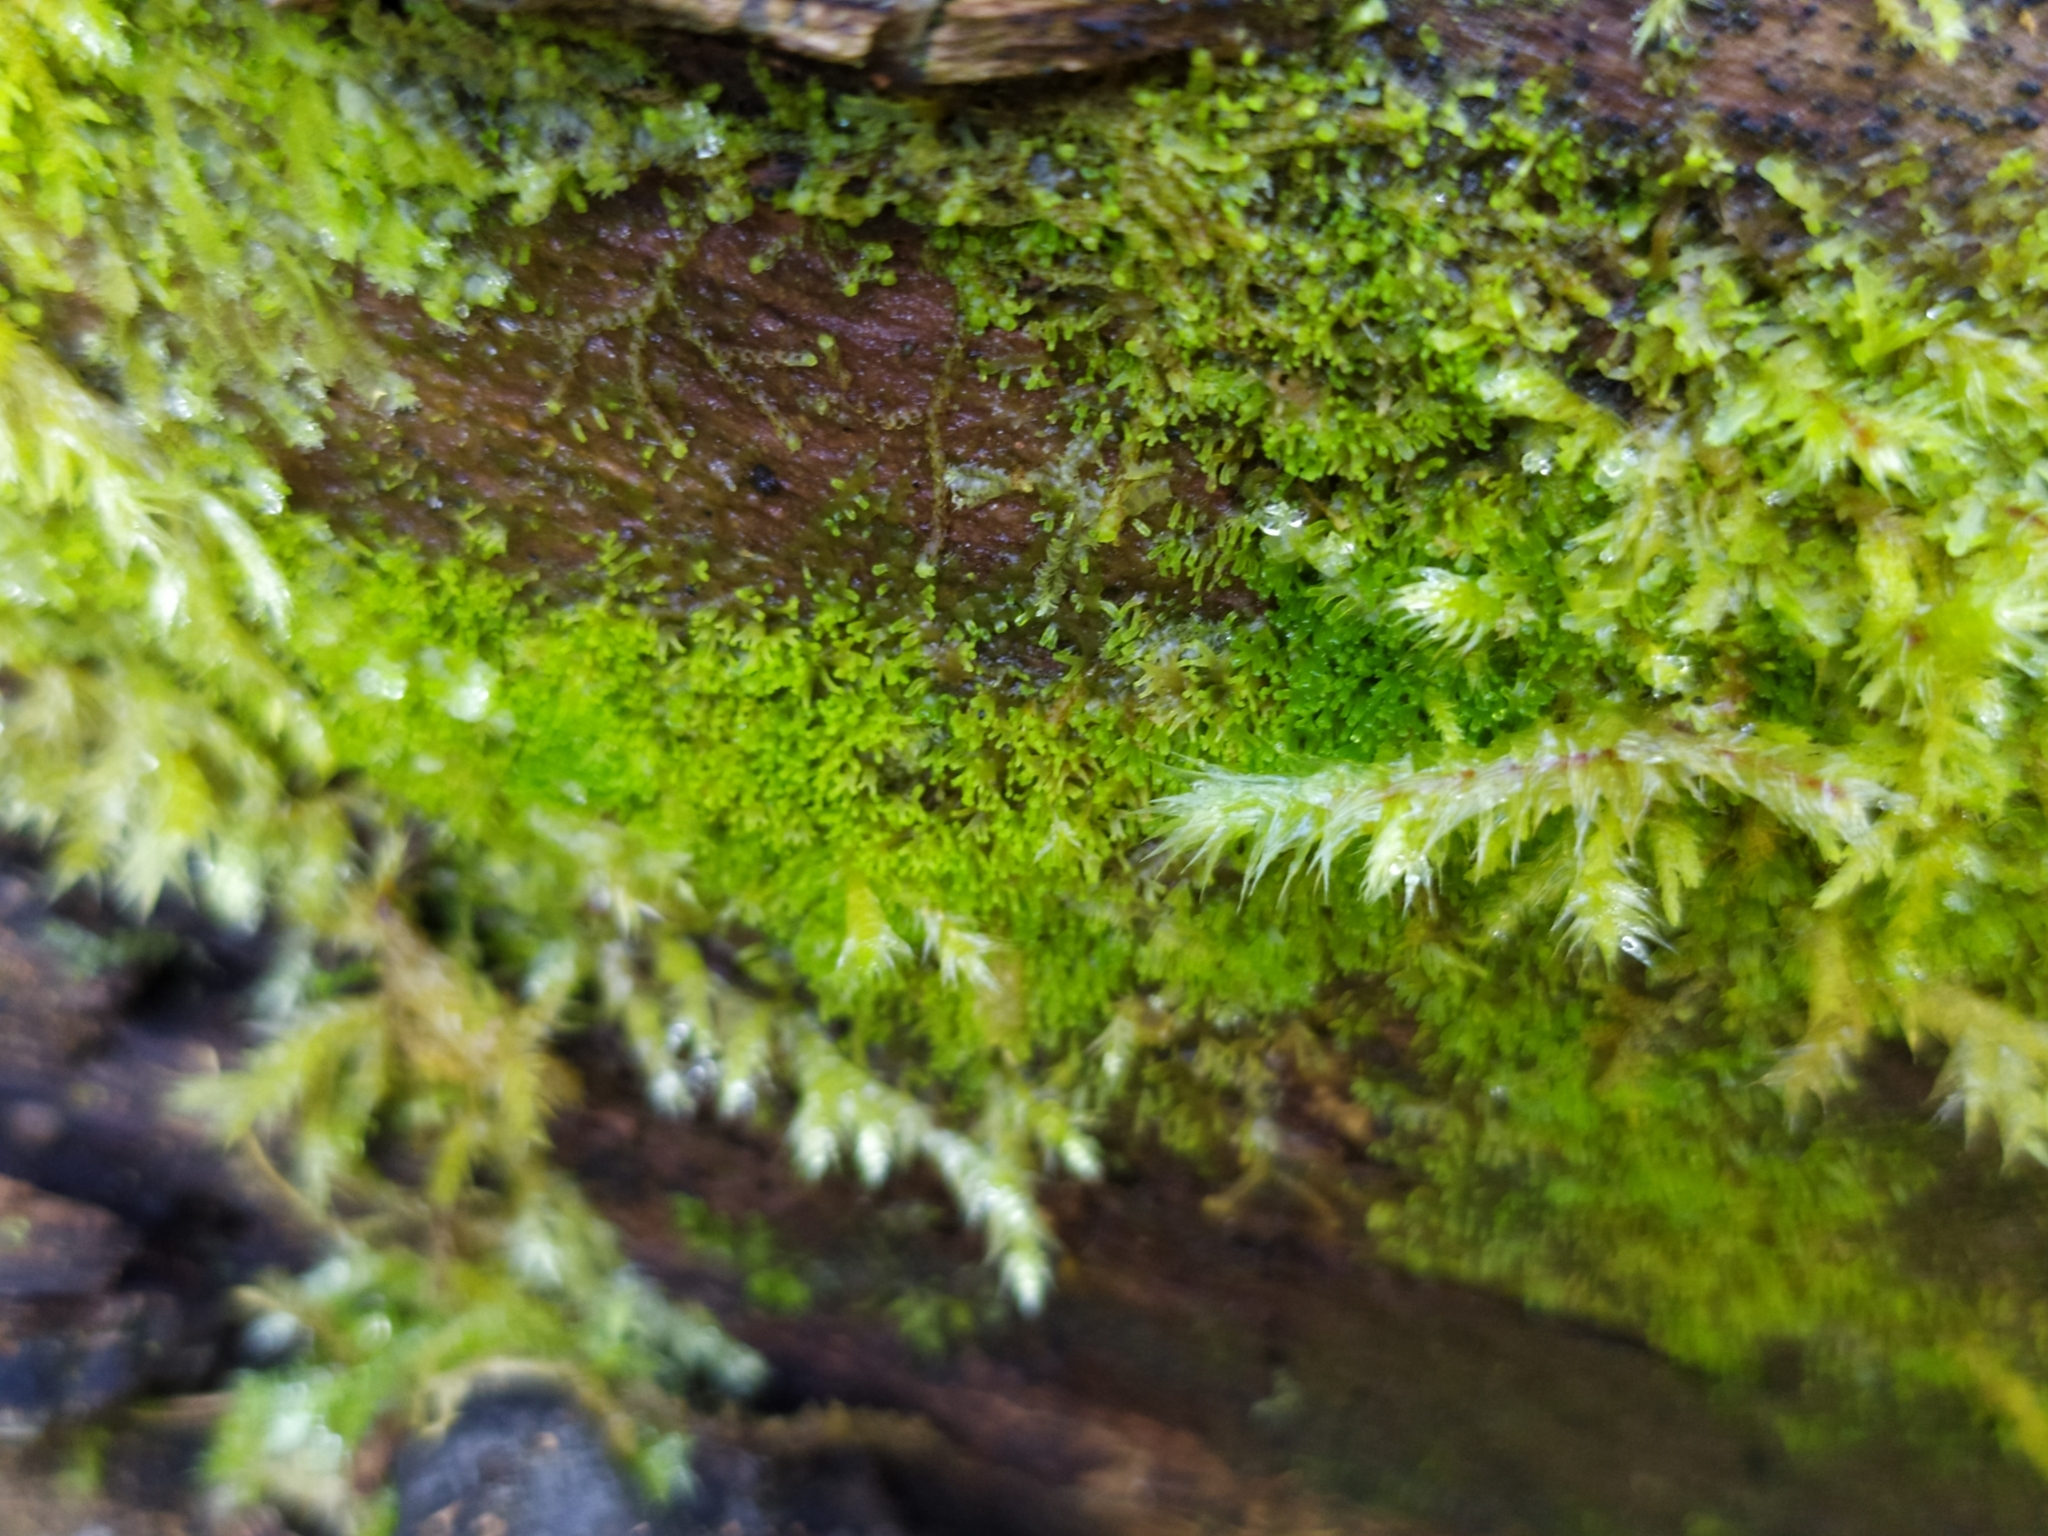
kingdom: Plantae
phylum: Marchantiophyta
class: Jungermanniopsida
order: Metzgeriales
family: Aneuraceae
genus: Riccardia
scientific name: Riccardia palmata
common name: Palmate germanderwort
